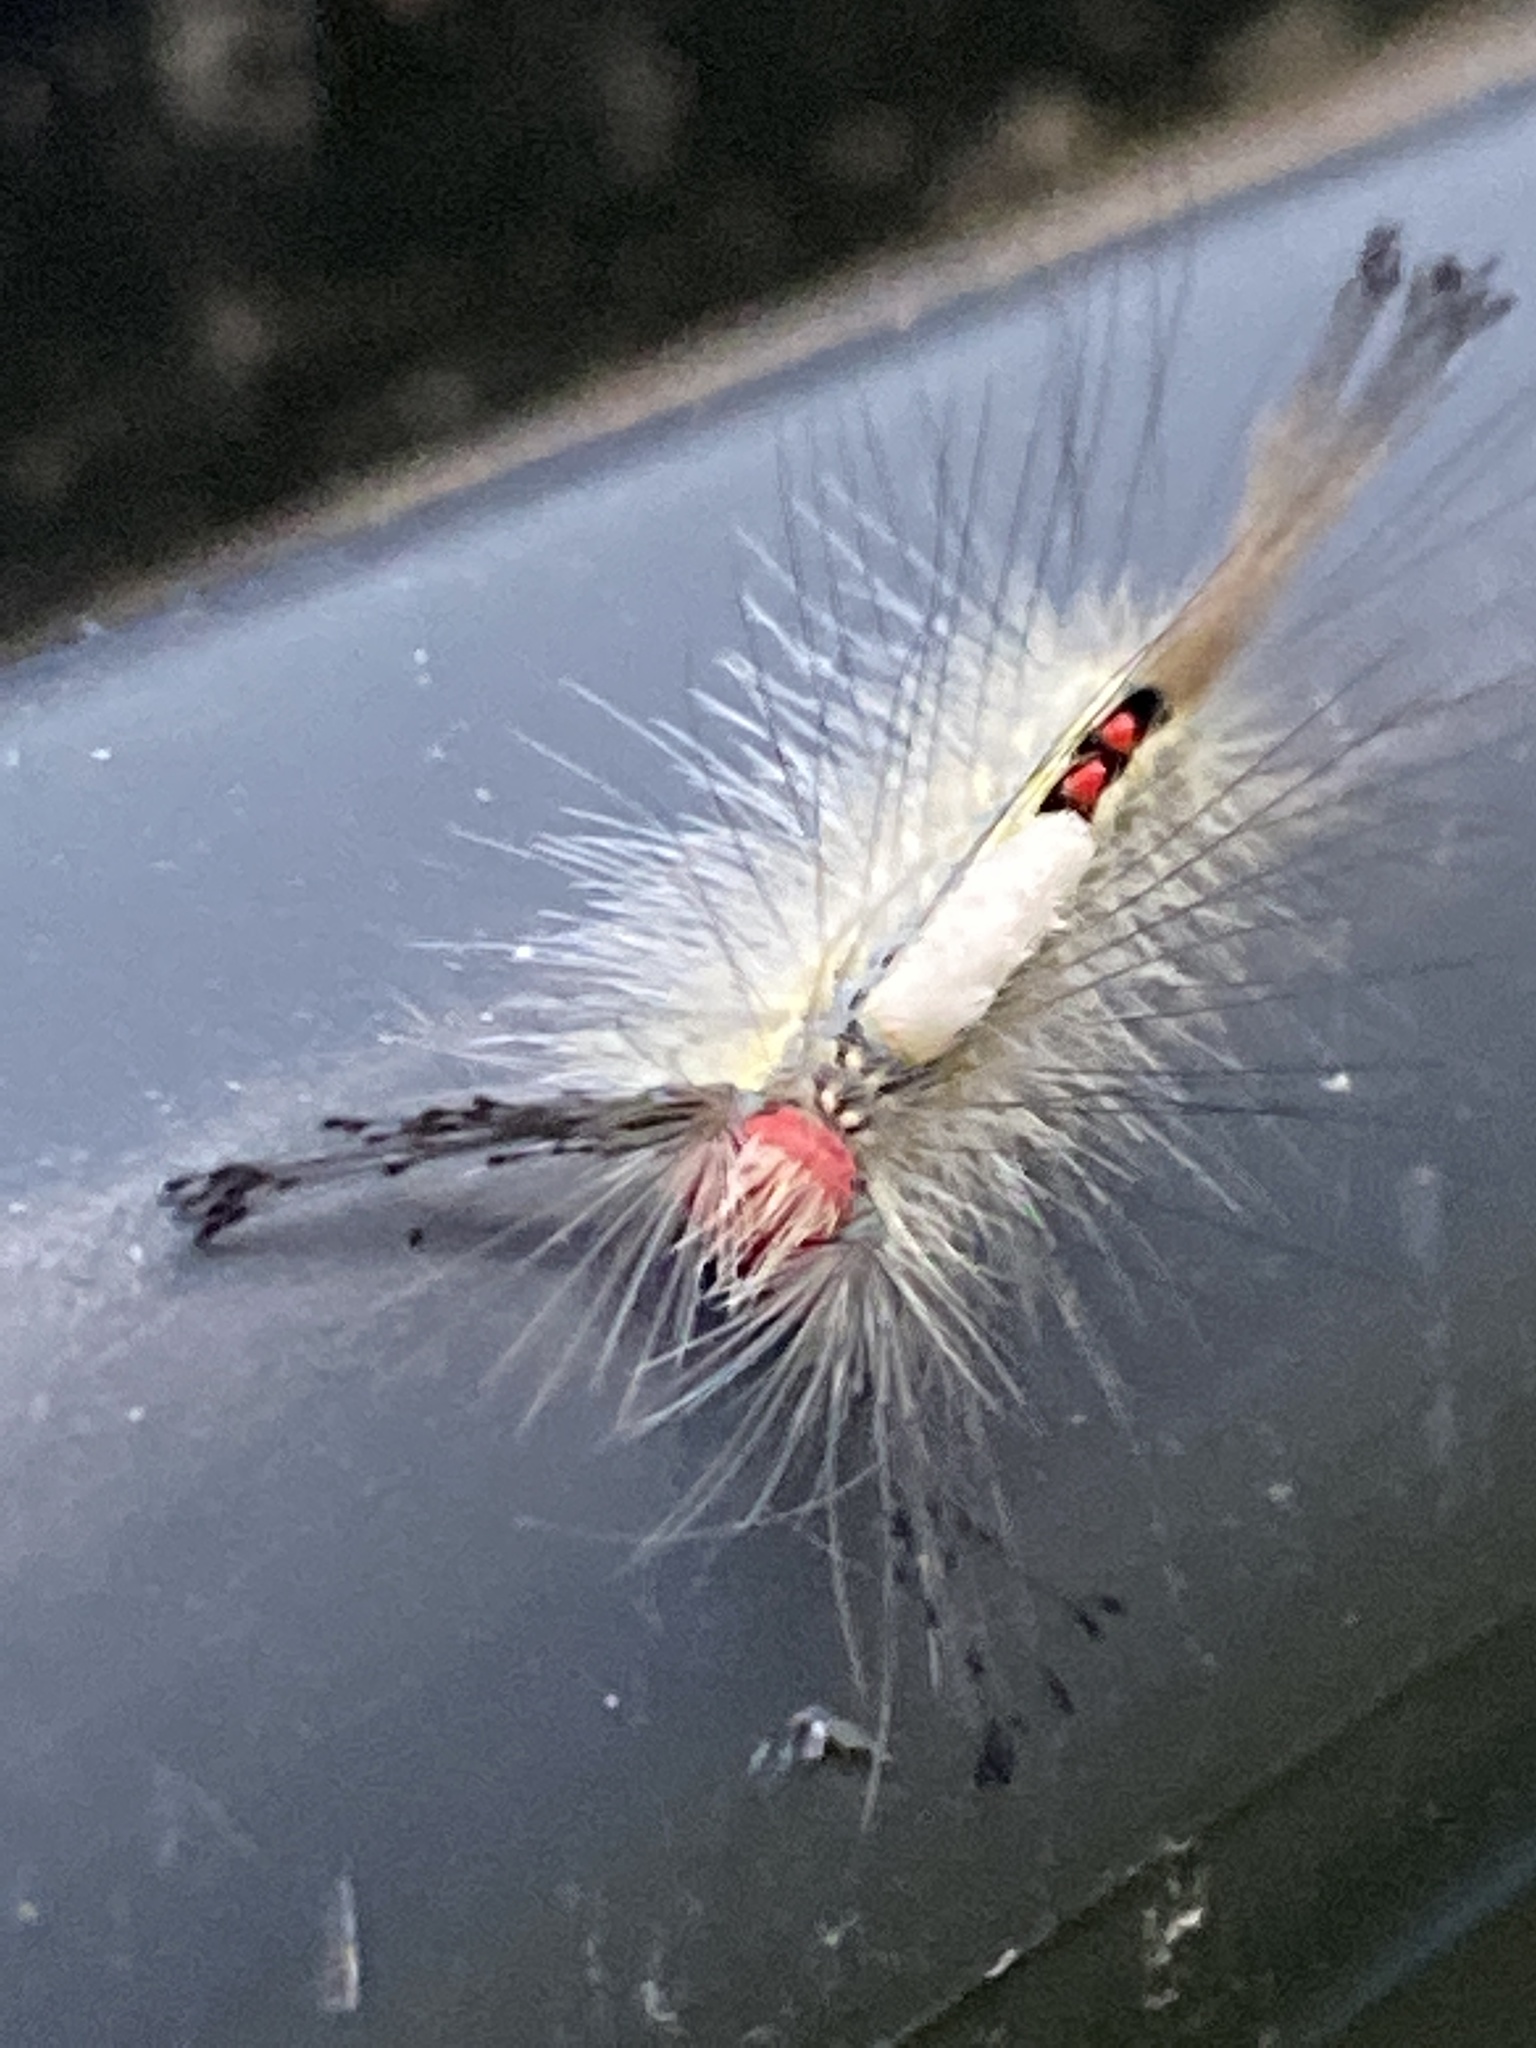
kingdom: Animalia
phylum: Arthropoda
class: Insecta
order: Lepidoptera
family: Erebidae
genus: Orgyia
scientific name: Orgyia leucostigma
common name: White-marked tussock moth
